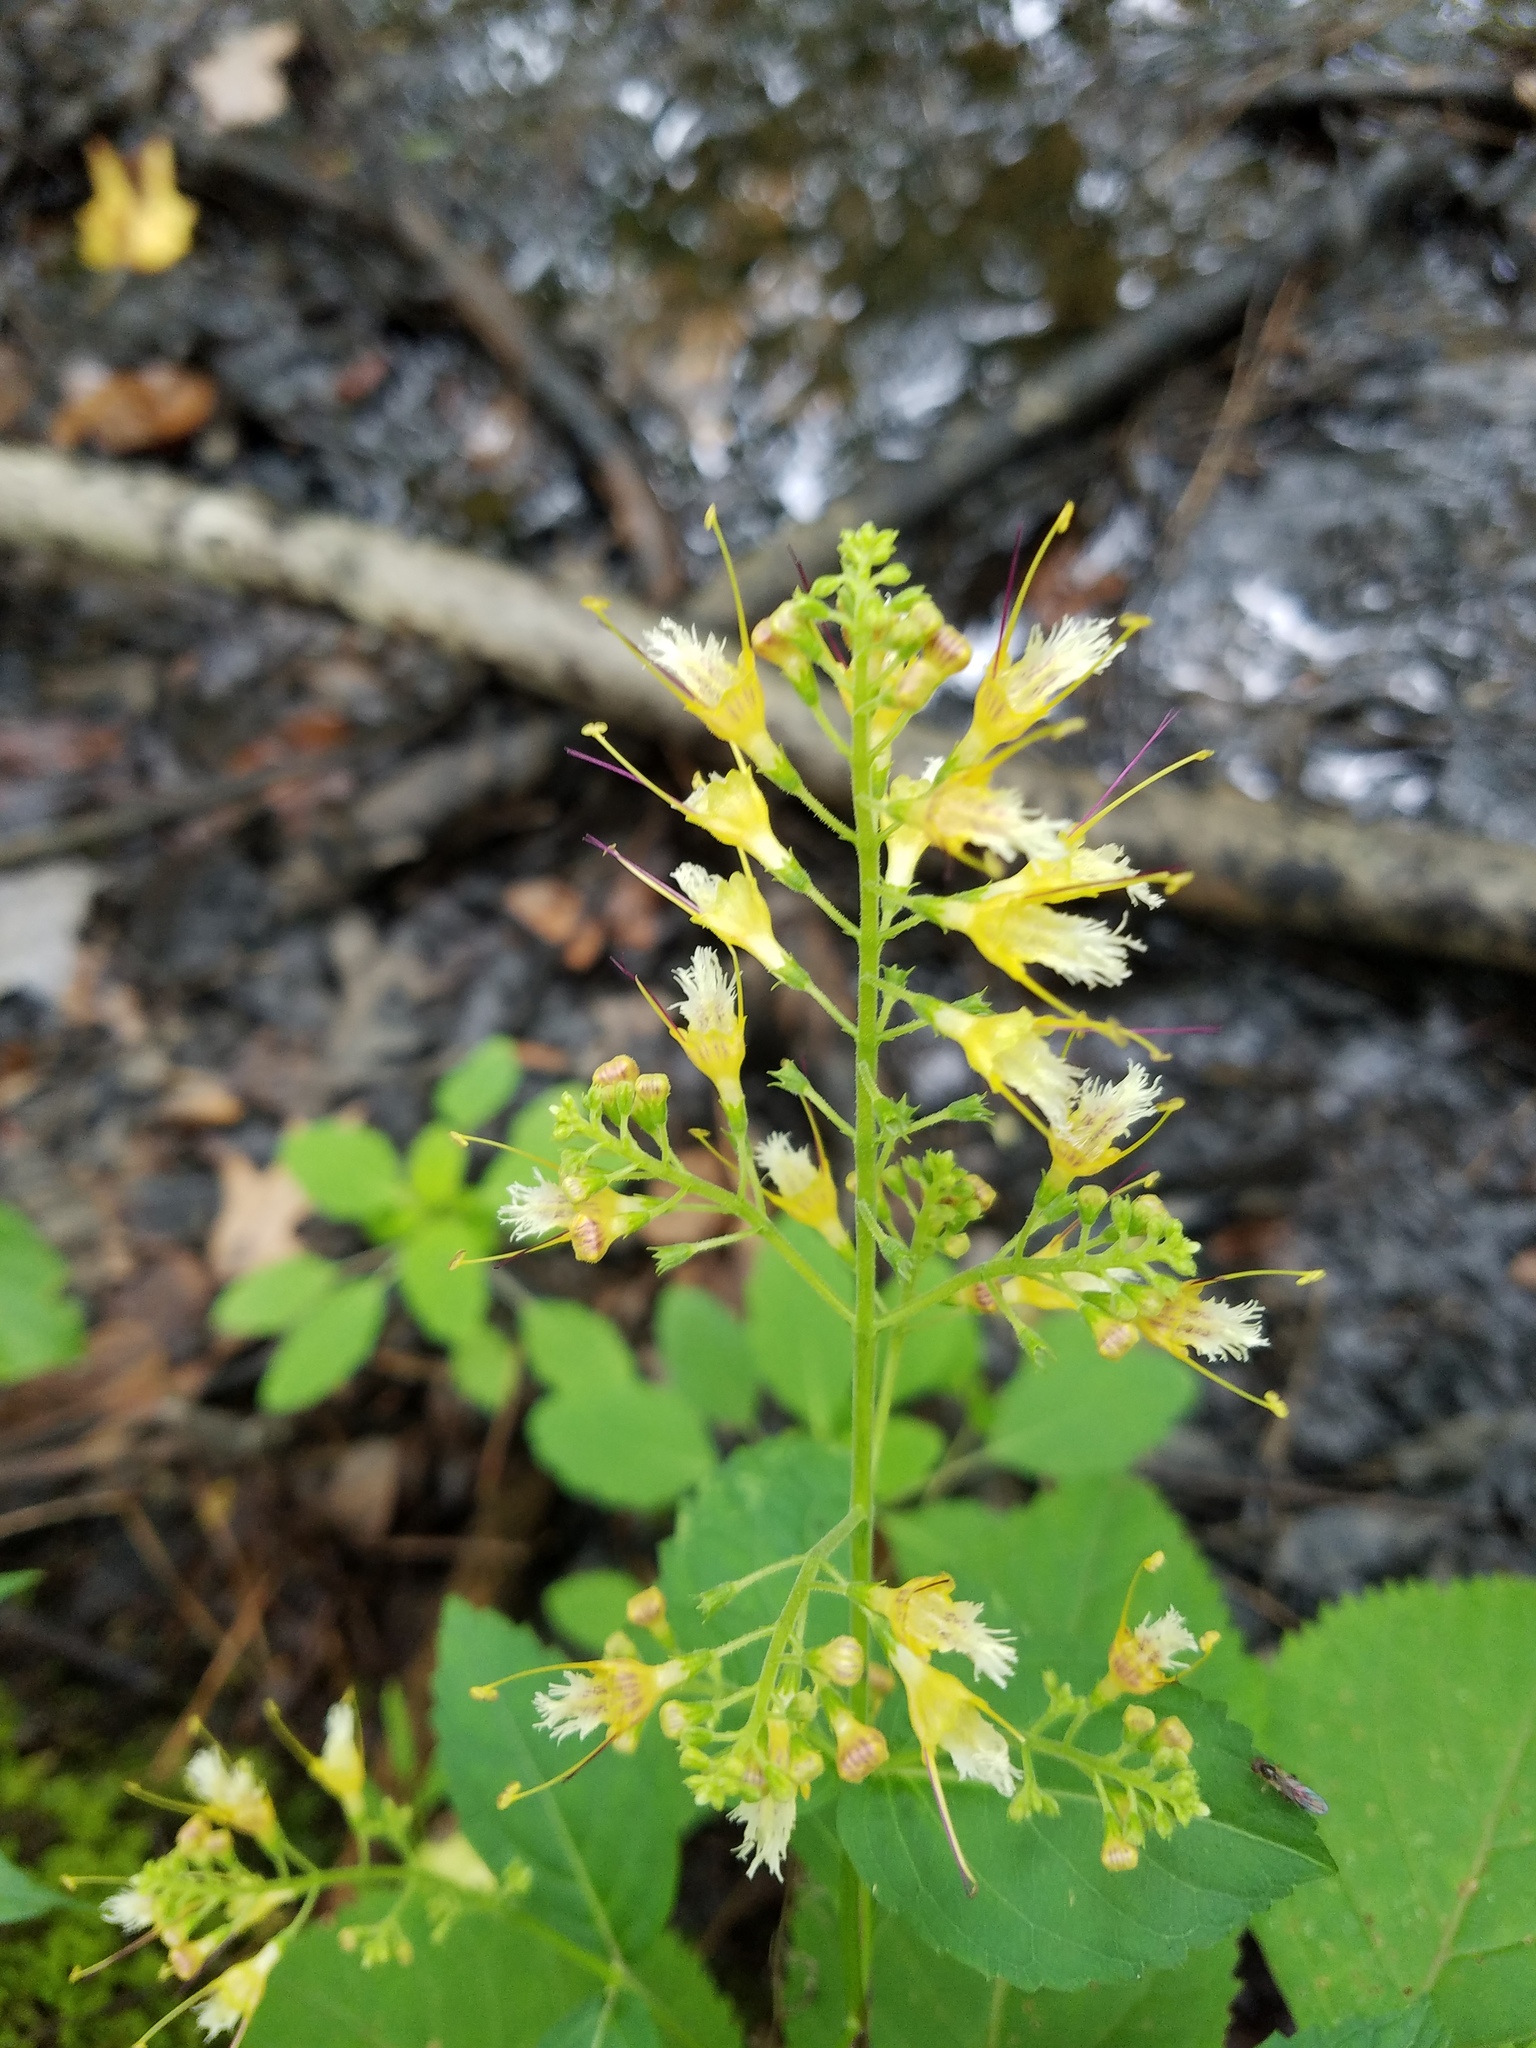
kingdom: Plantae
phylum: Tracheophyta
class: Magnoliopsida
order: Lamiales
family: Lamiaceae
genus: Collinsonia
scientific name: Collinsonia canadensis
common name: Northern horsebalm
